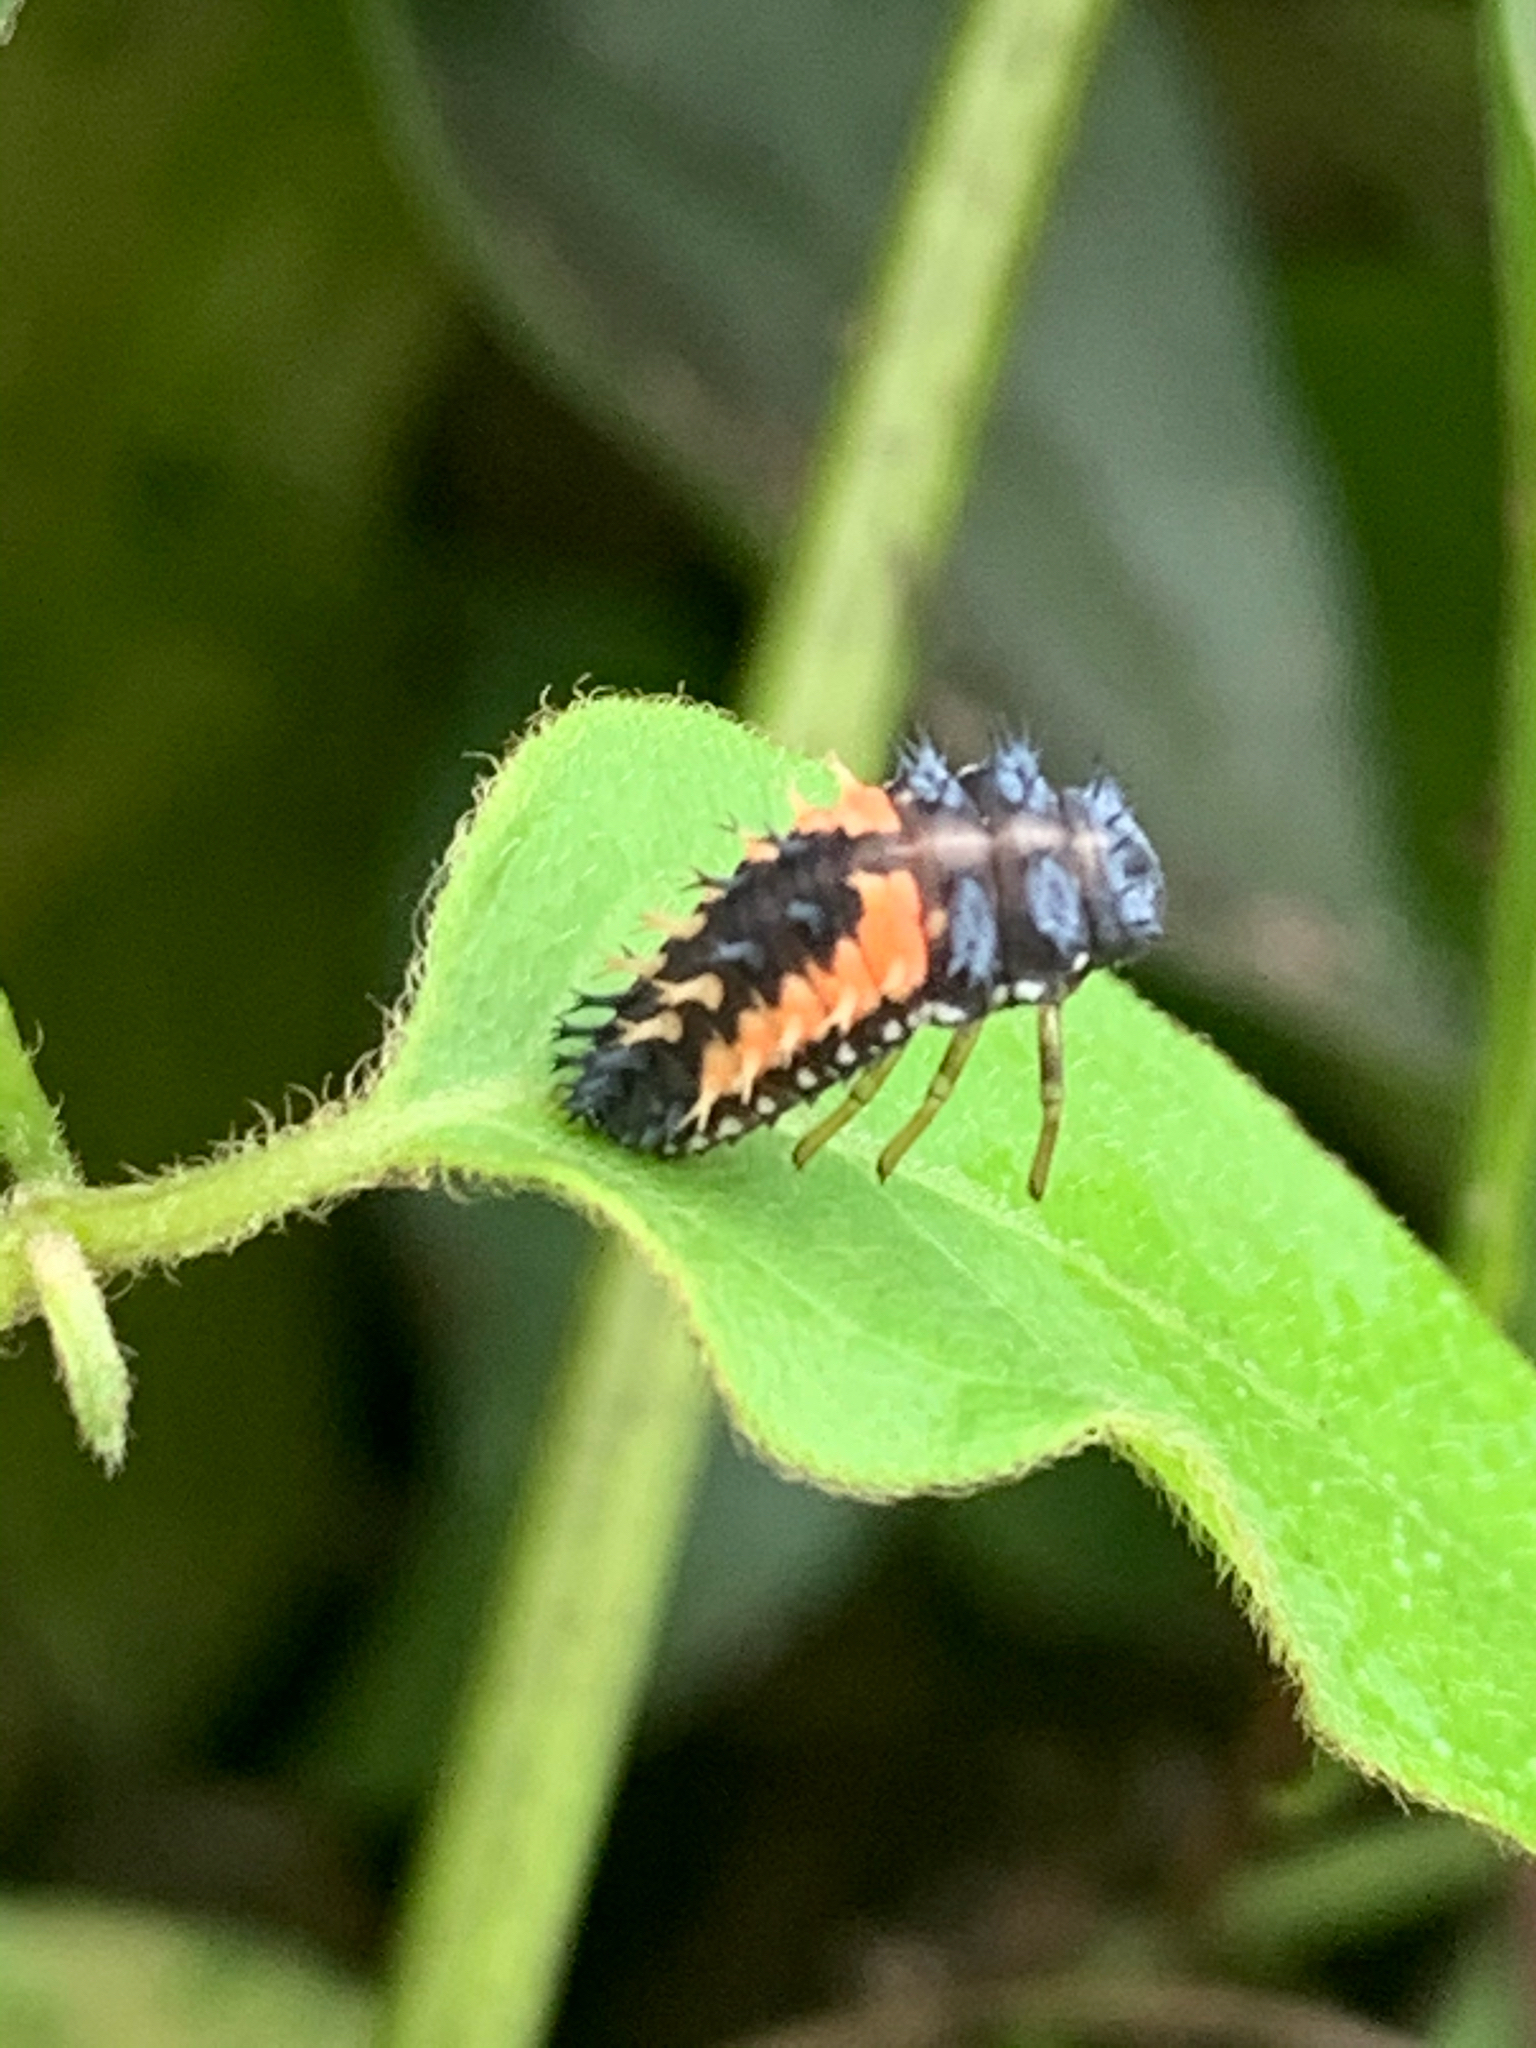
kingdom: Animalia
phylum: Arthropoda
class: Insecta
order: Coleoptera
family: Coccinellidae
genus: Harmonia
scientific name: Harmonia axyridis
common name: Harlequin ladybird
